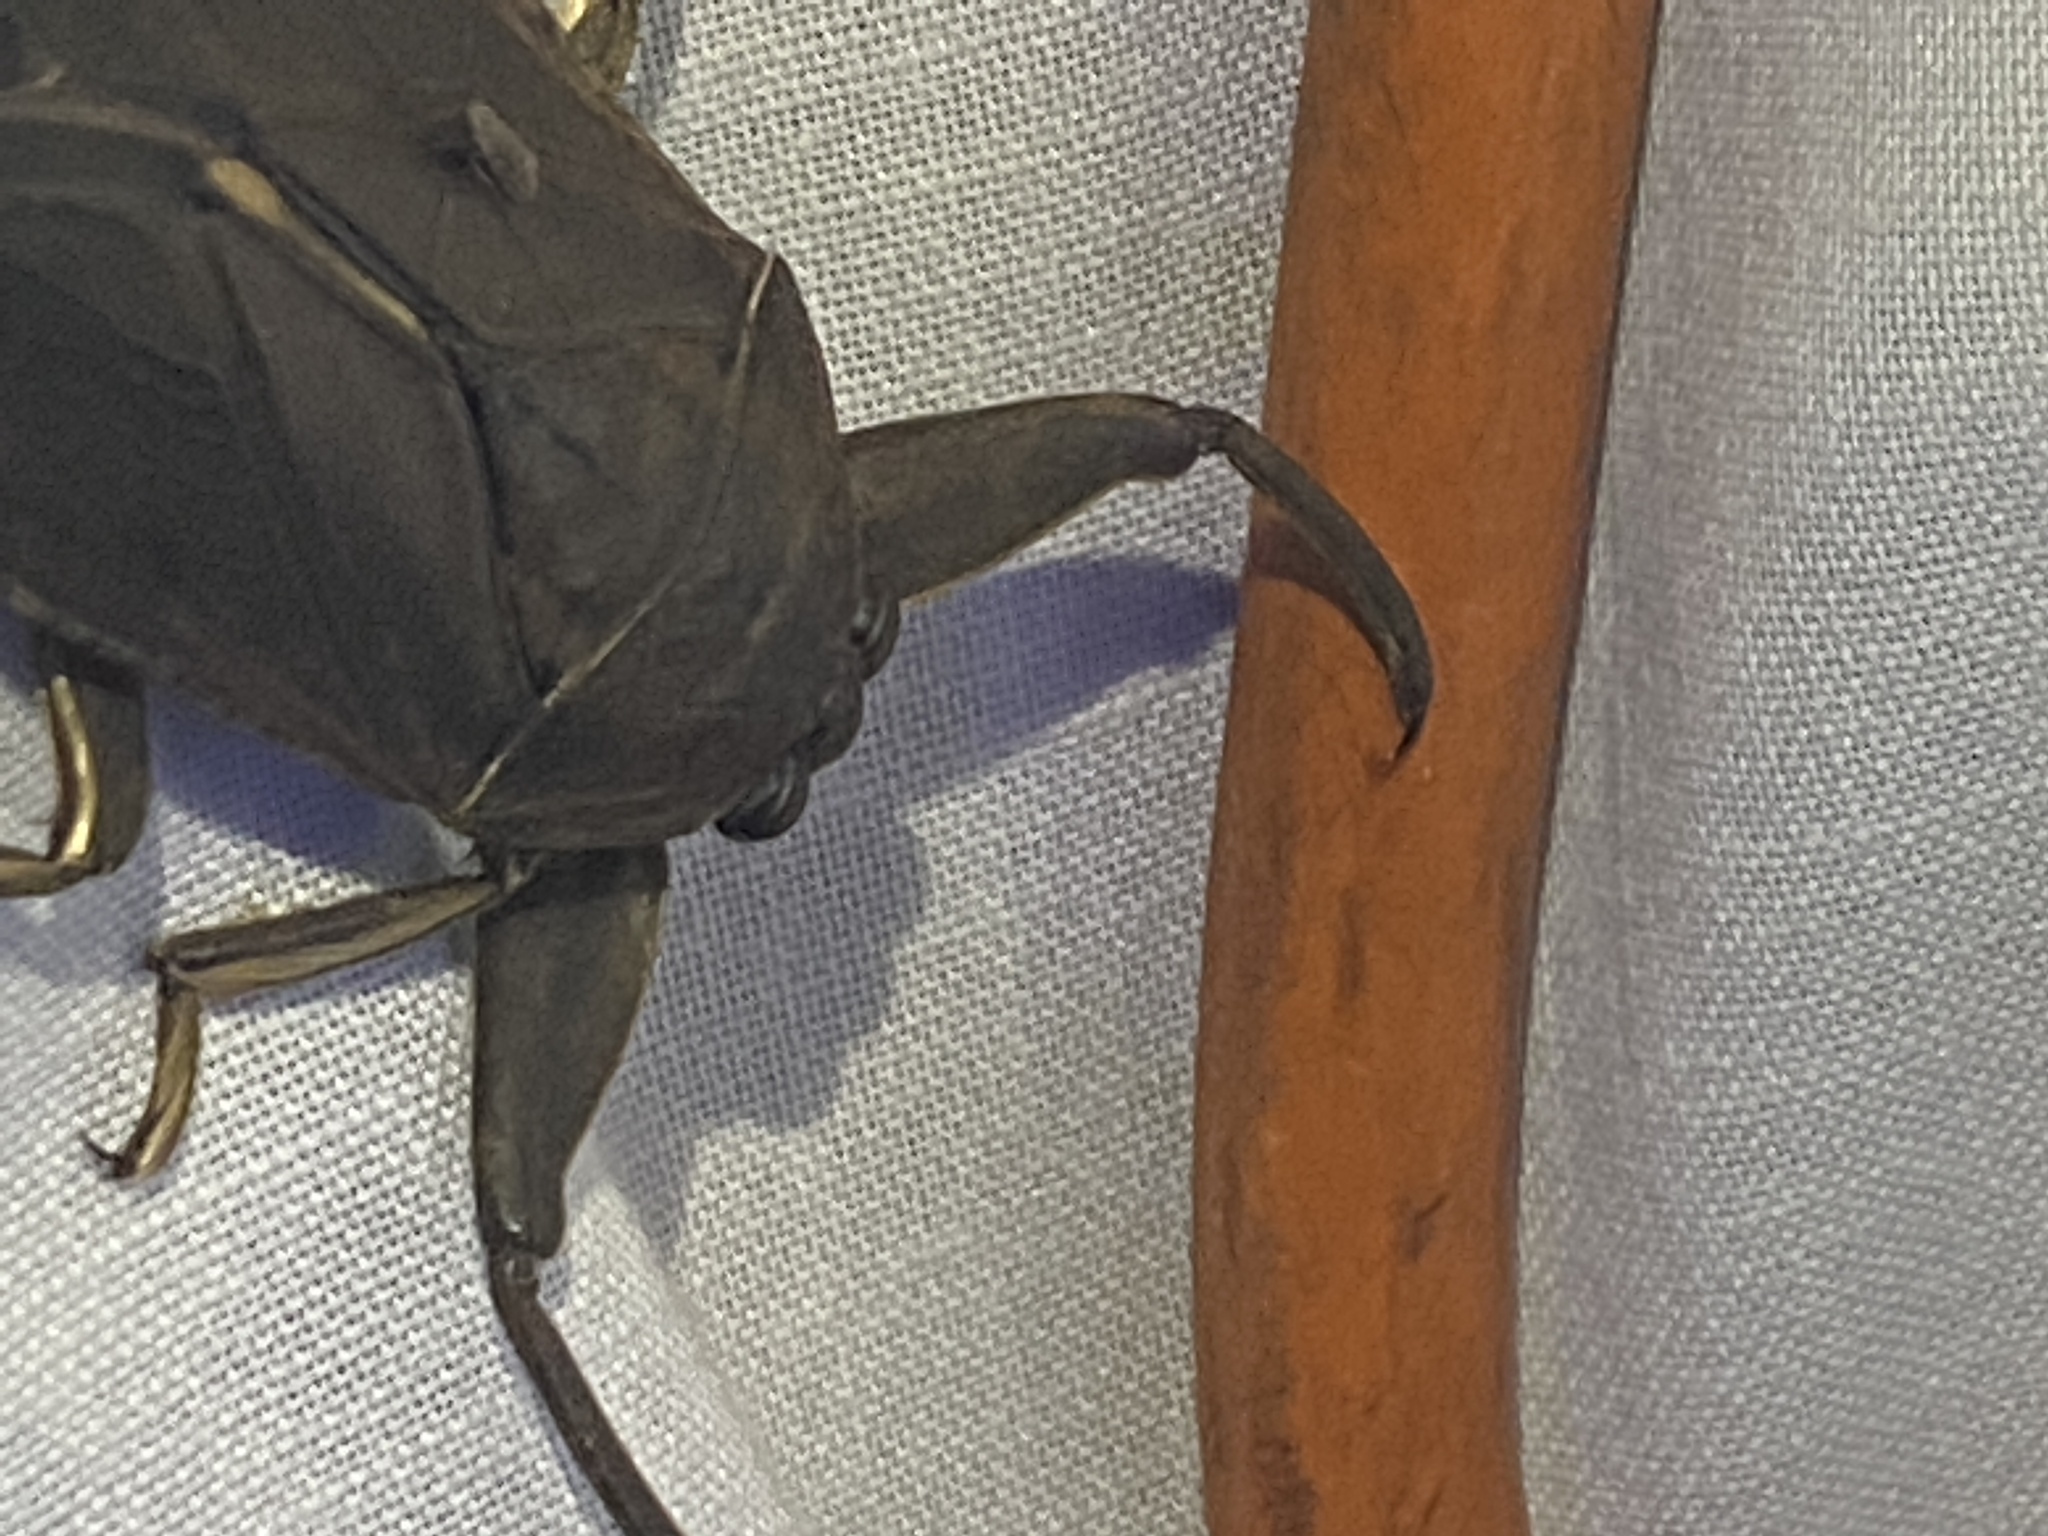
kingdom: Animalia
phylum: Arthropoda
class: Insecta
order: Hemiptera
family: Belostomatidae
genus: Lethocerus
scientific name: Lethocerus americanus
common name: Giant water bug
